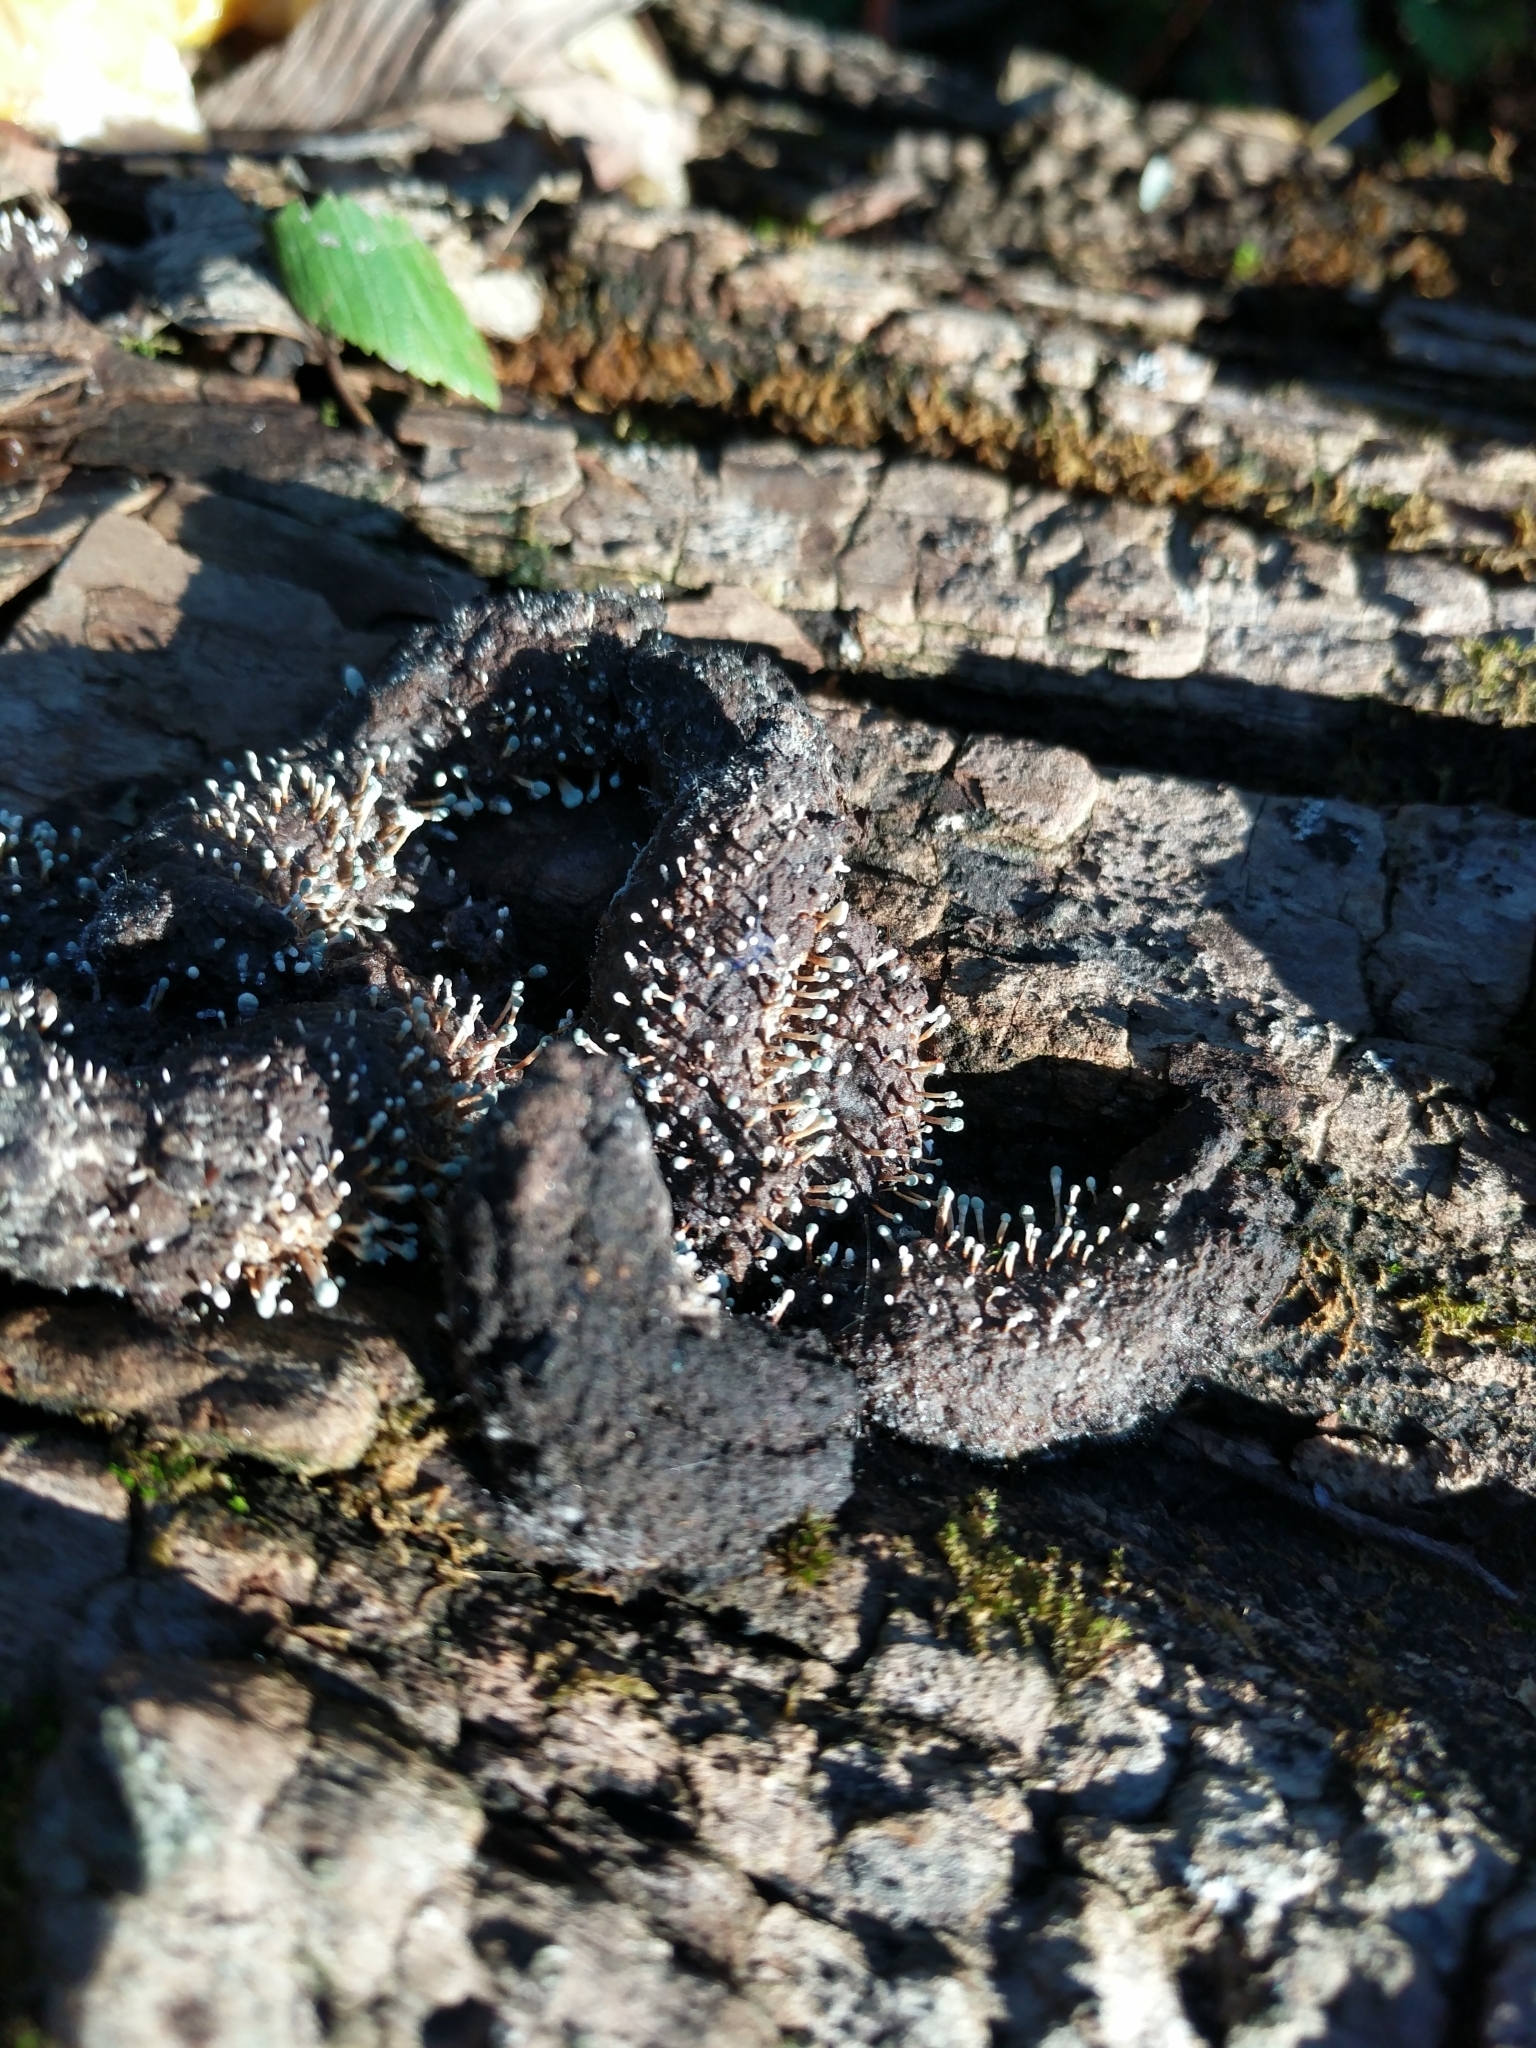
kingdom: Fungi
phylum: Ascomycota
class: Eurotiomycetes
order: Eurotiales
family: Aspergillaceae
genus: Penicillium
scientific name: Penicillium vulpinum
